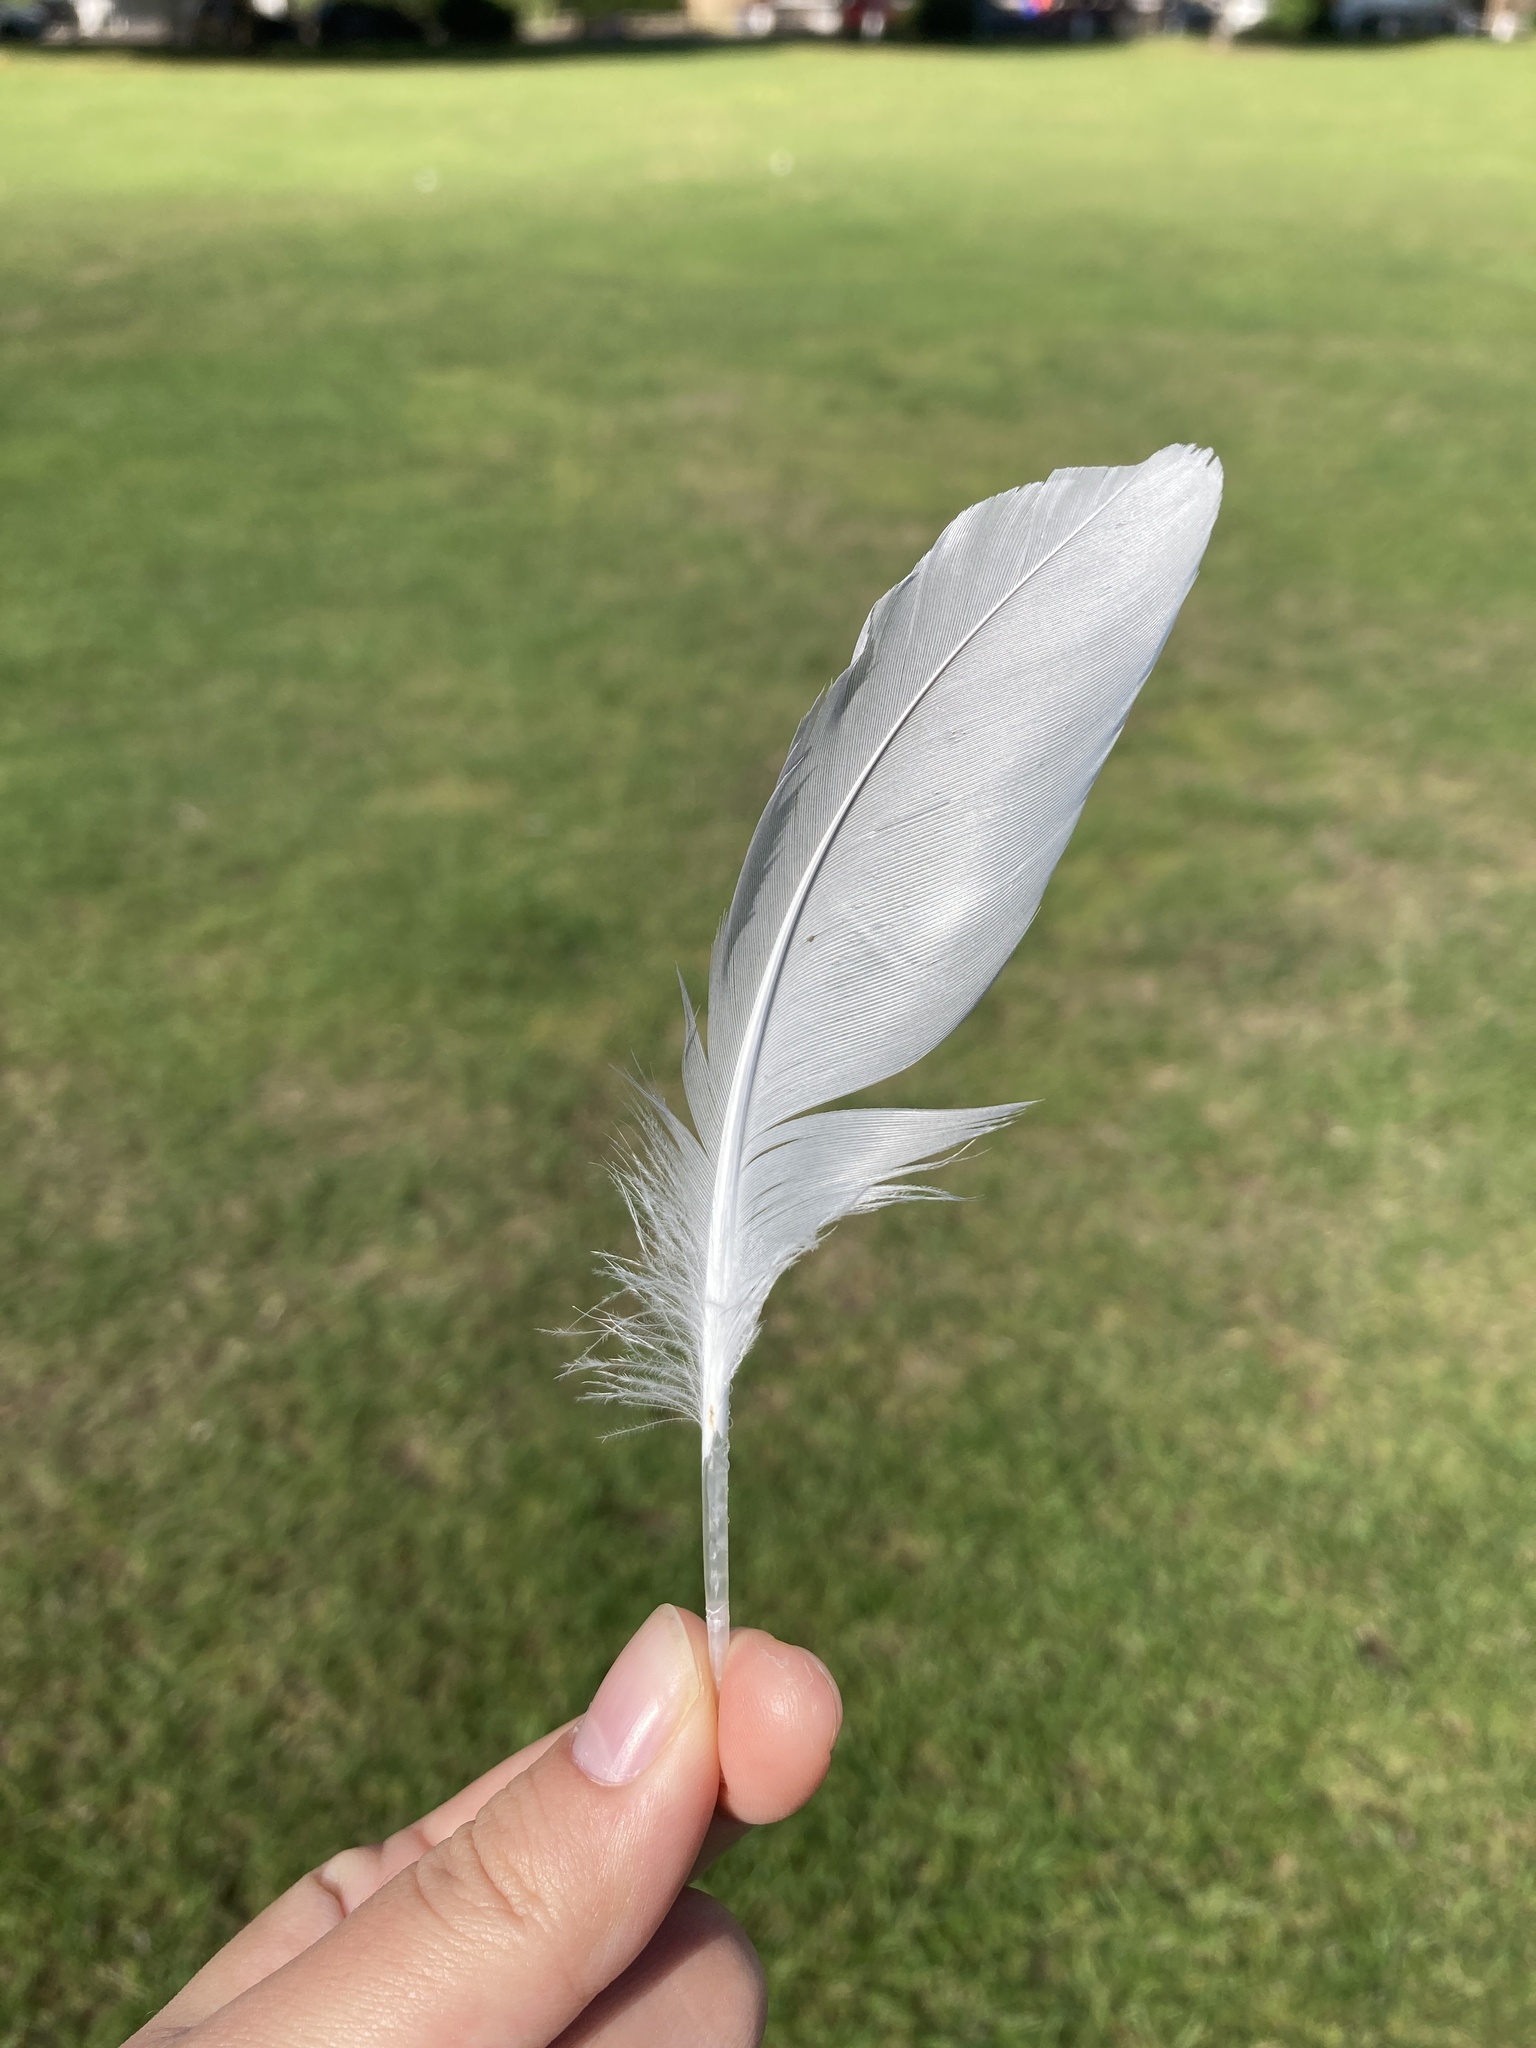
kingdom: Animalia
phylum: Chordata
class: Aves
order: Charadriiformes
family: Laridae
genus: Chroicocephalus
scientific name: Chroicocephalus ridibundus
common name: Black-headed gull
